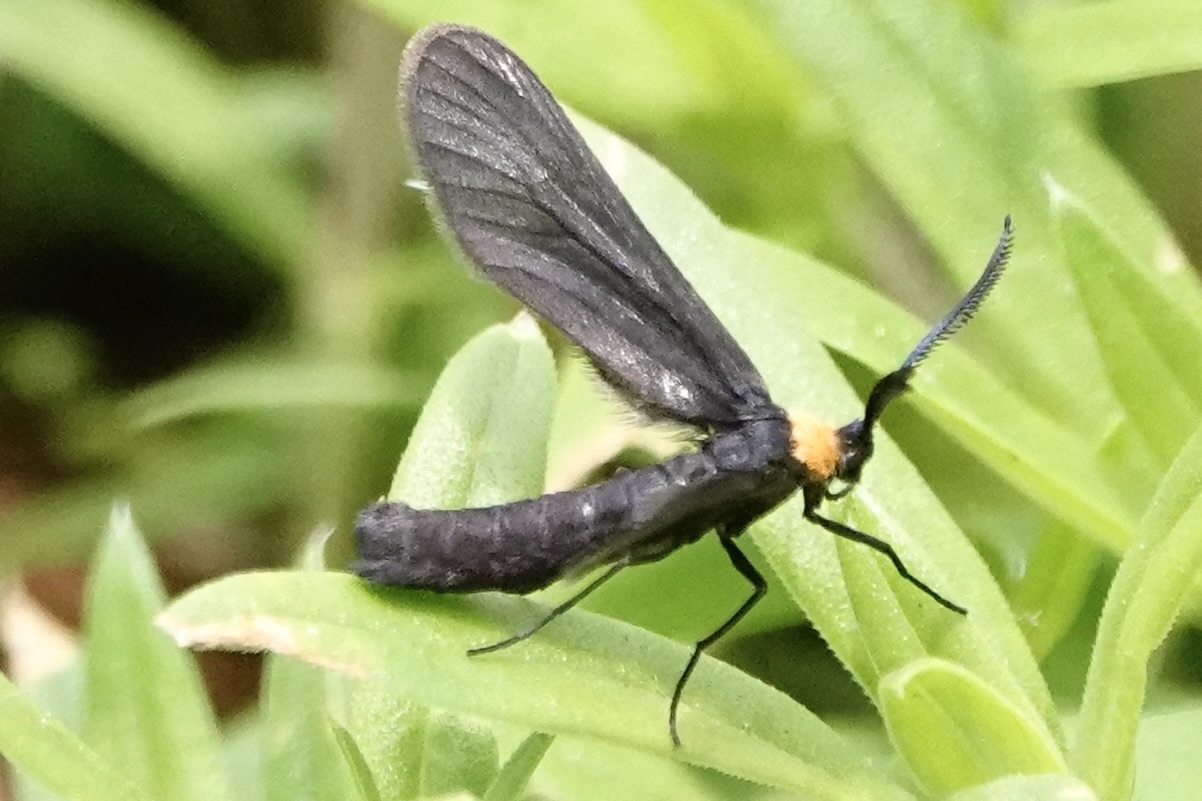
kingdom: Animalia
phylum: Arthropoda
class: Insecta
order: Lepidoptera
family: Zygaenidae
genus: Harrisina
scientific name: Harrisina americana
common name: Grapeleaf skeletonizer moth
